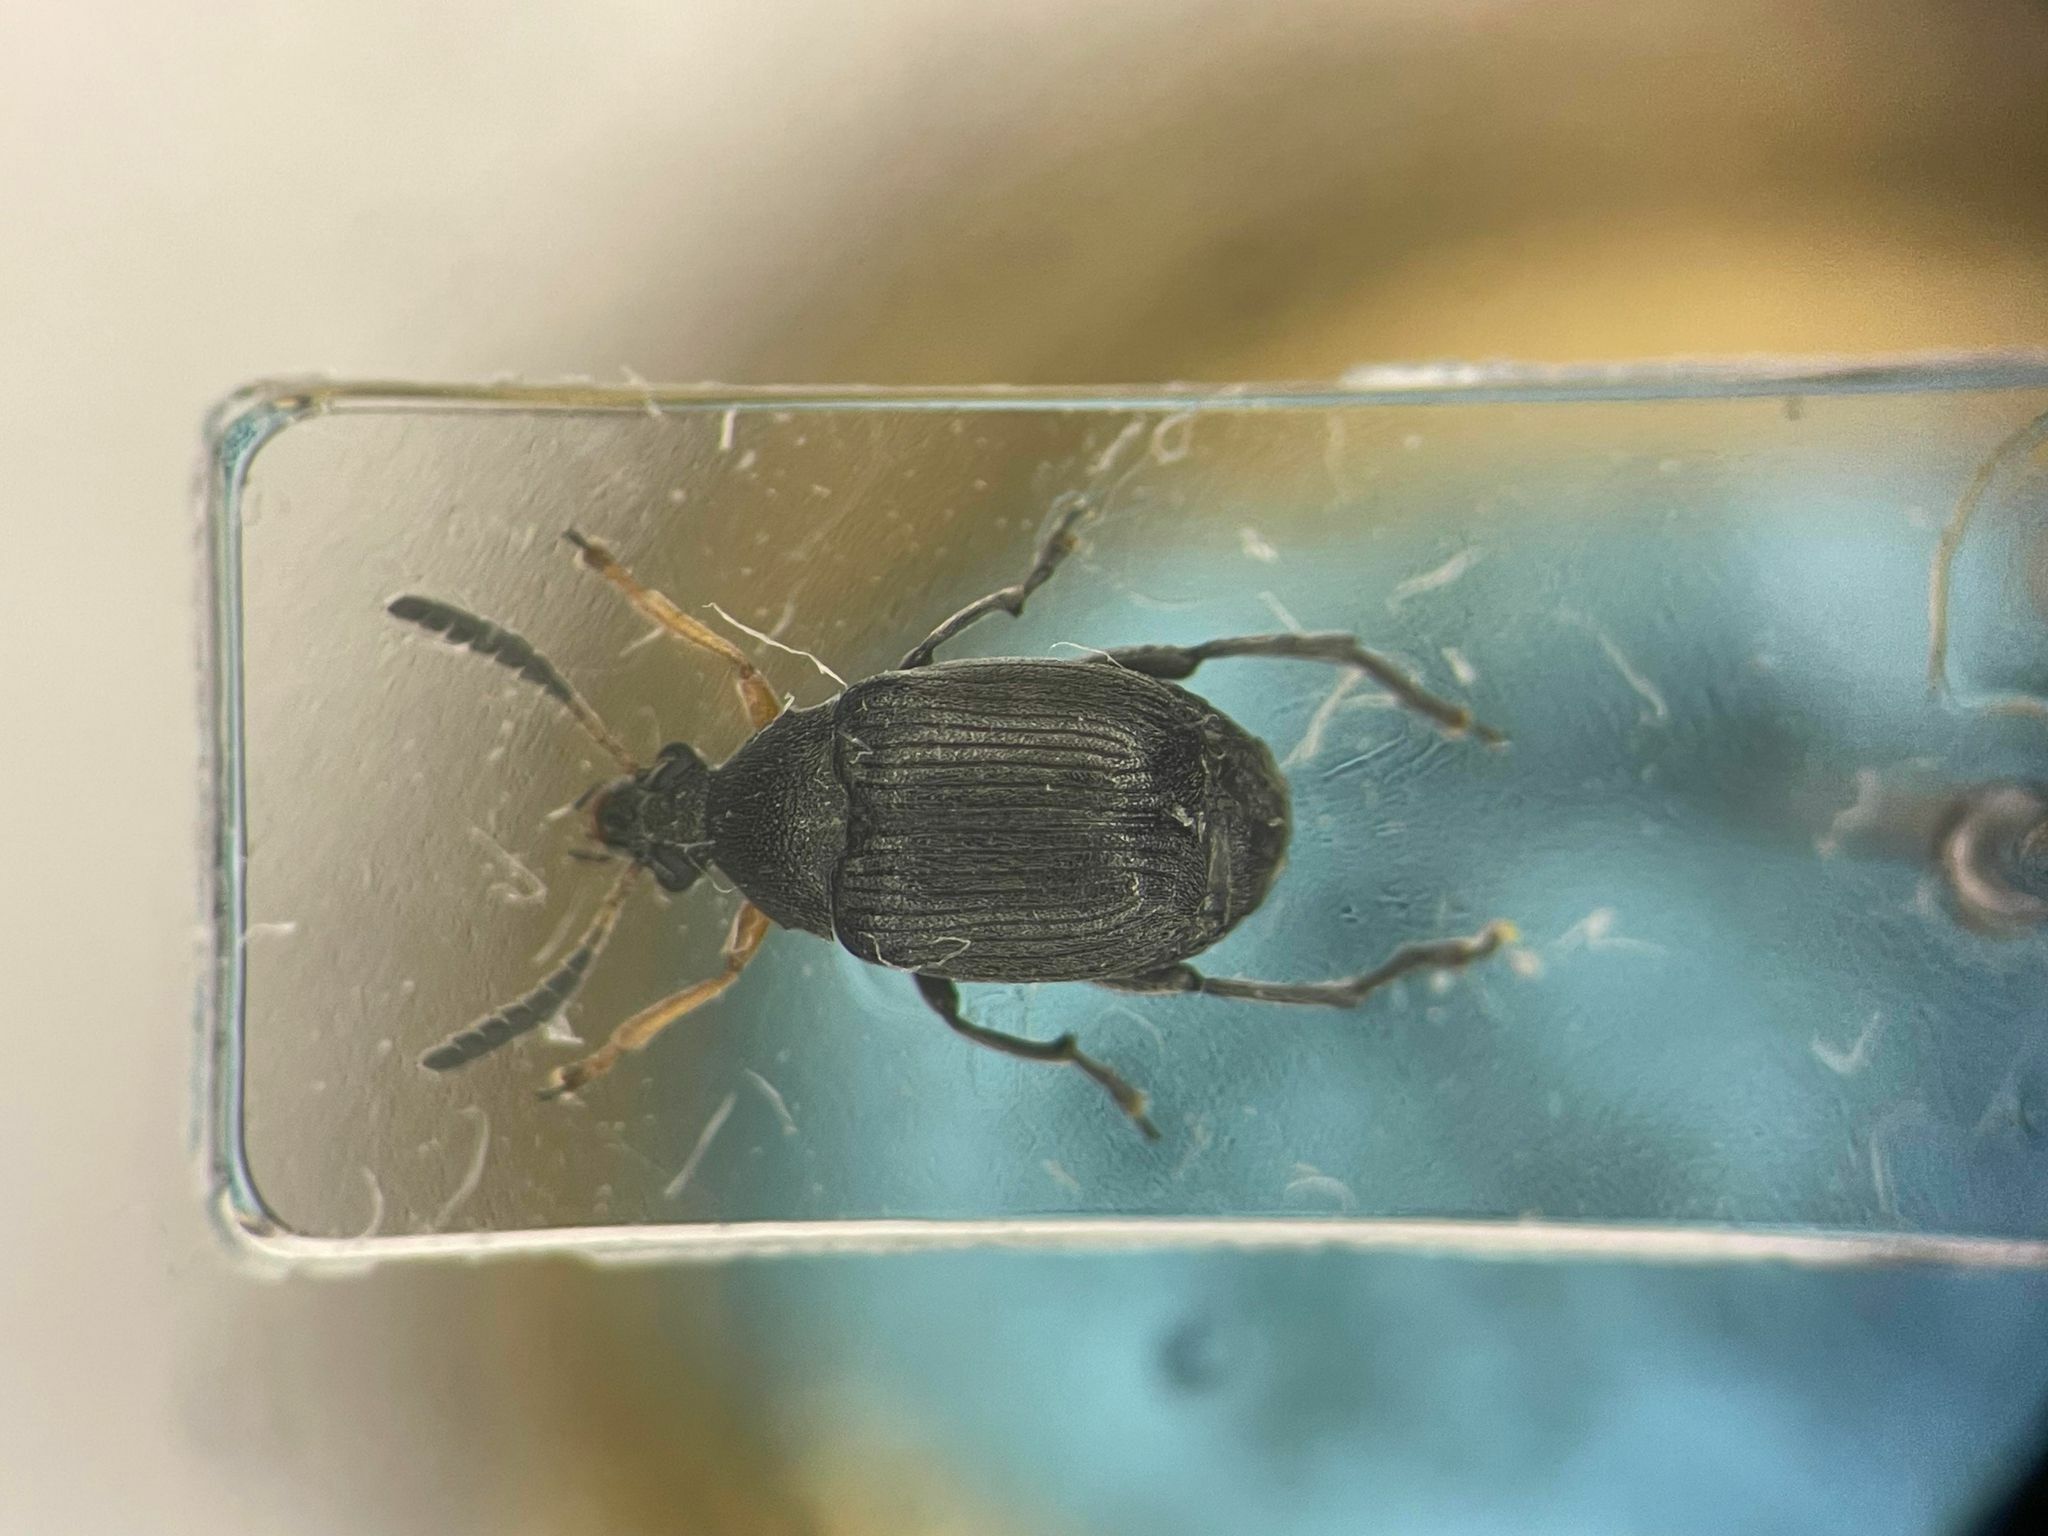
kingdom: Animalia
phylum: Arthropoda
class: Insecta
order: Coleoptera
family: Chrysomelidae
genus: Bruchus
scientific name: Bruchus loti
